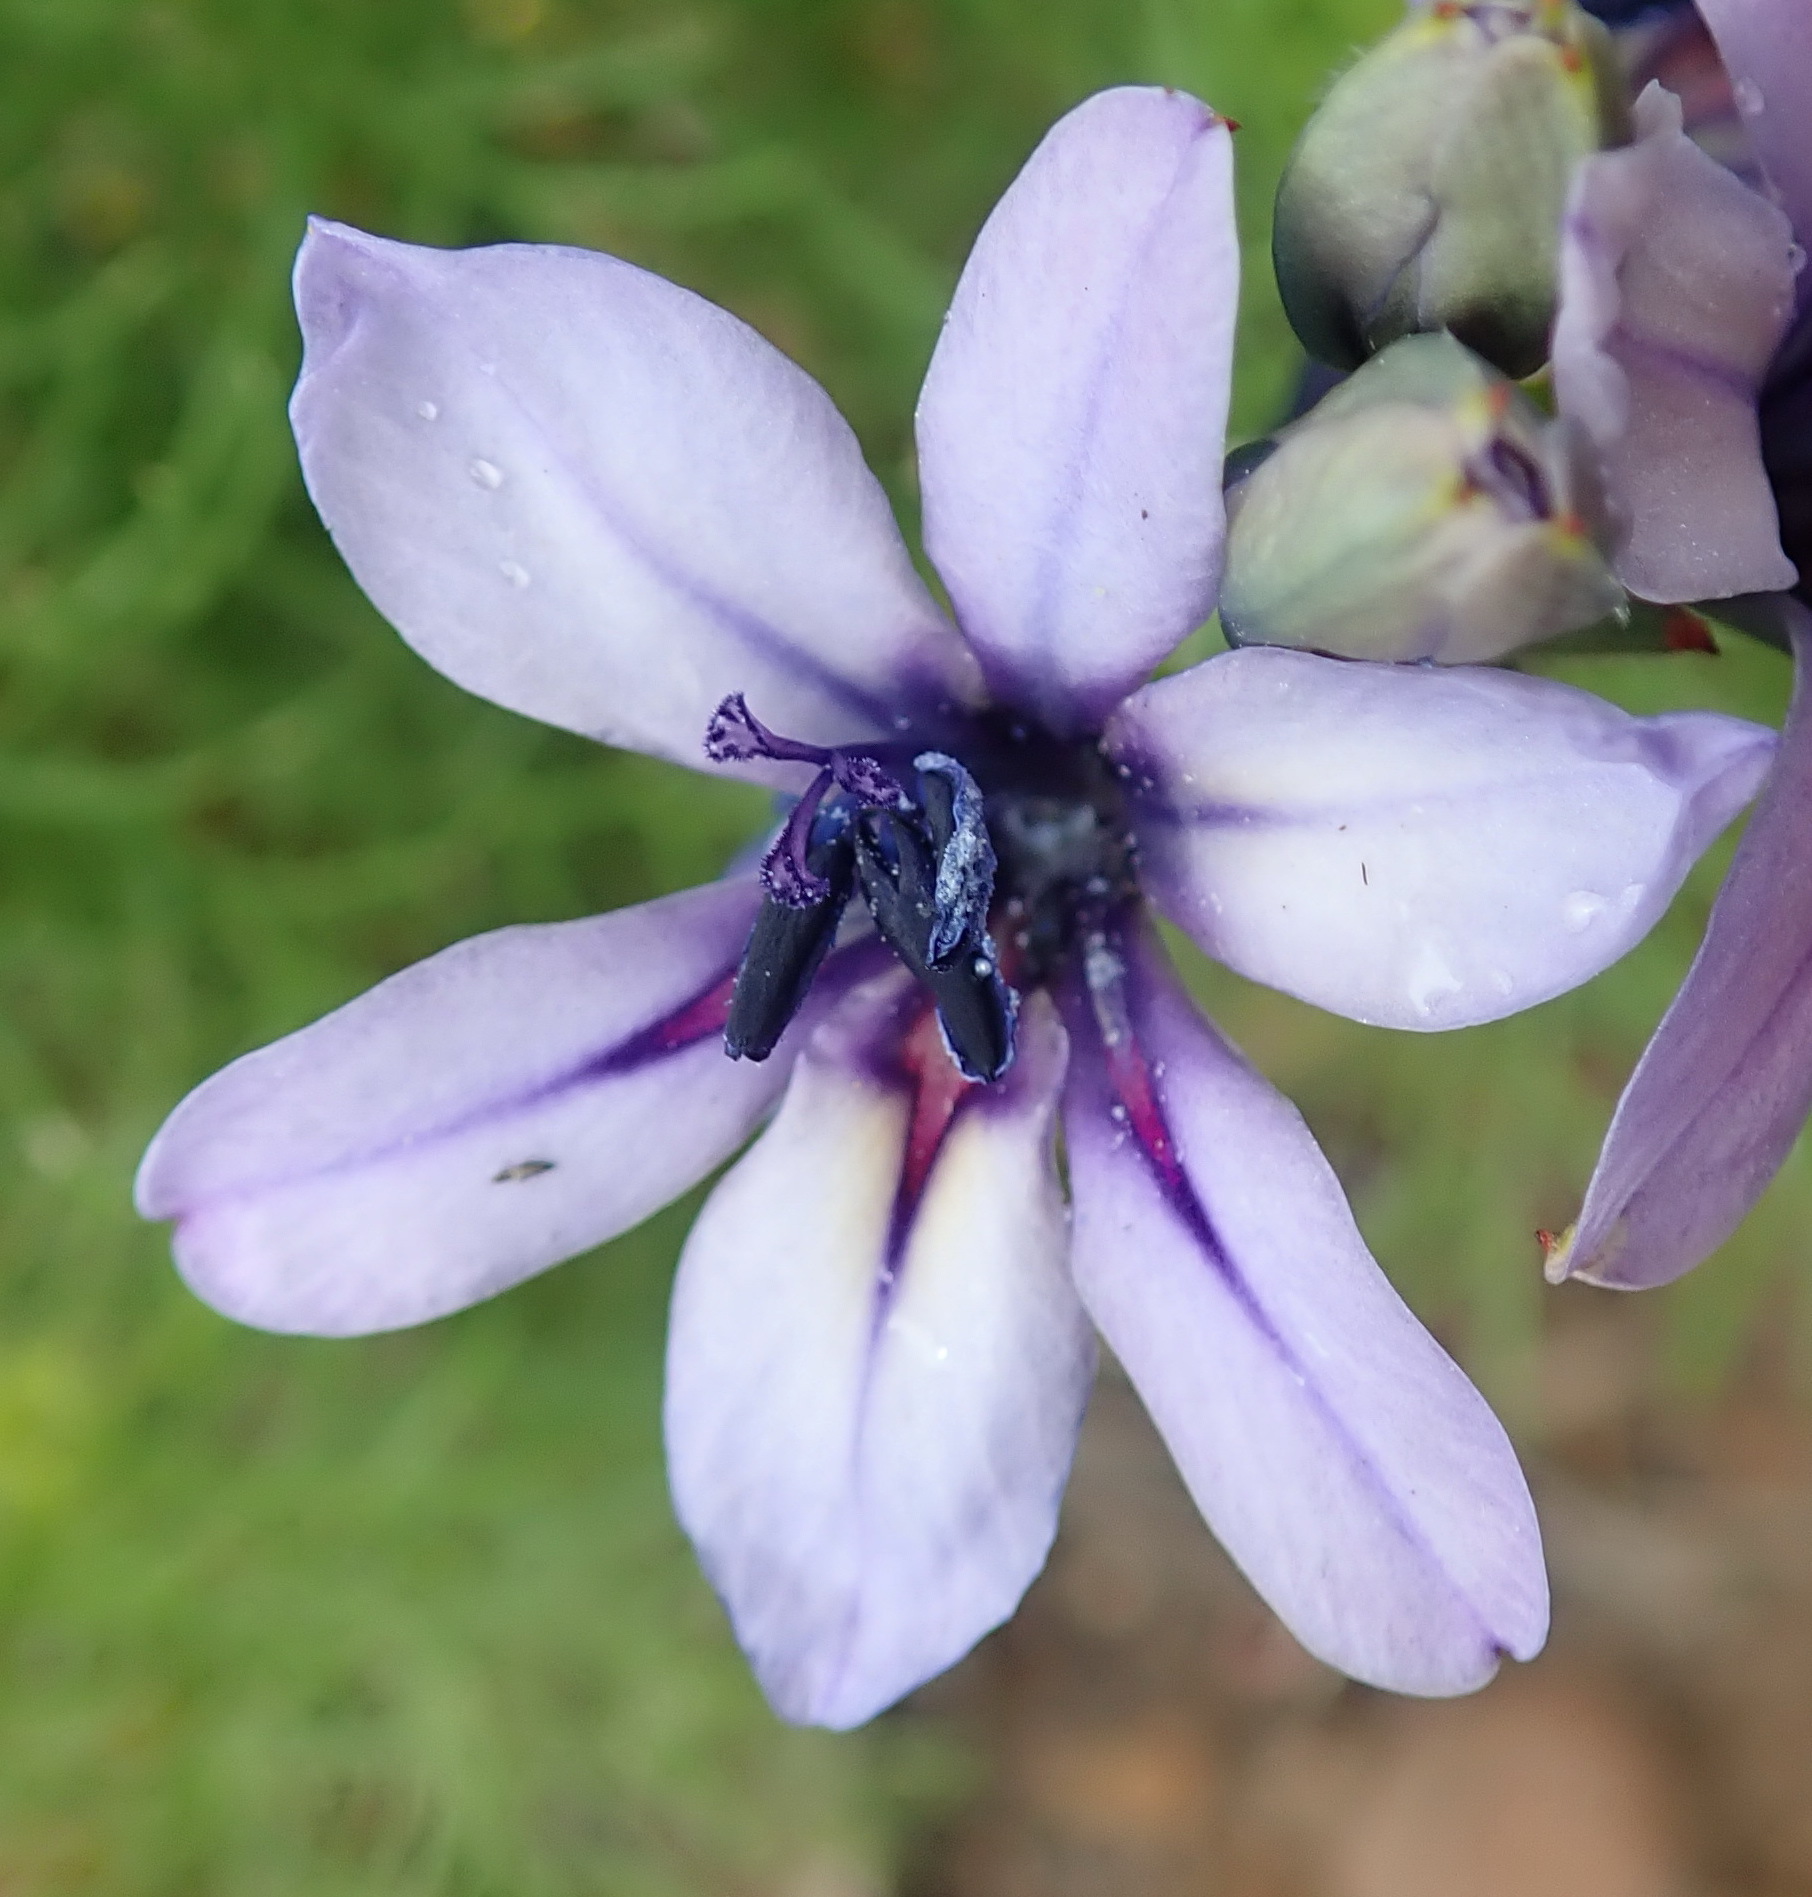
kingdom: Plantae
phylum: Tracheophyta
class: Liliopsida
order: Asparagales
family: Iridaceae
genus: Babiana
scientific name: Babiana fragrans
